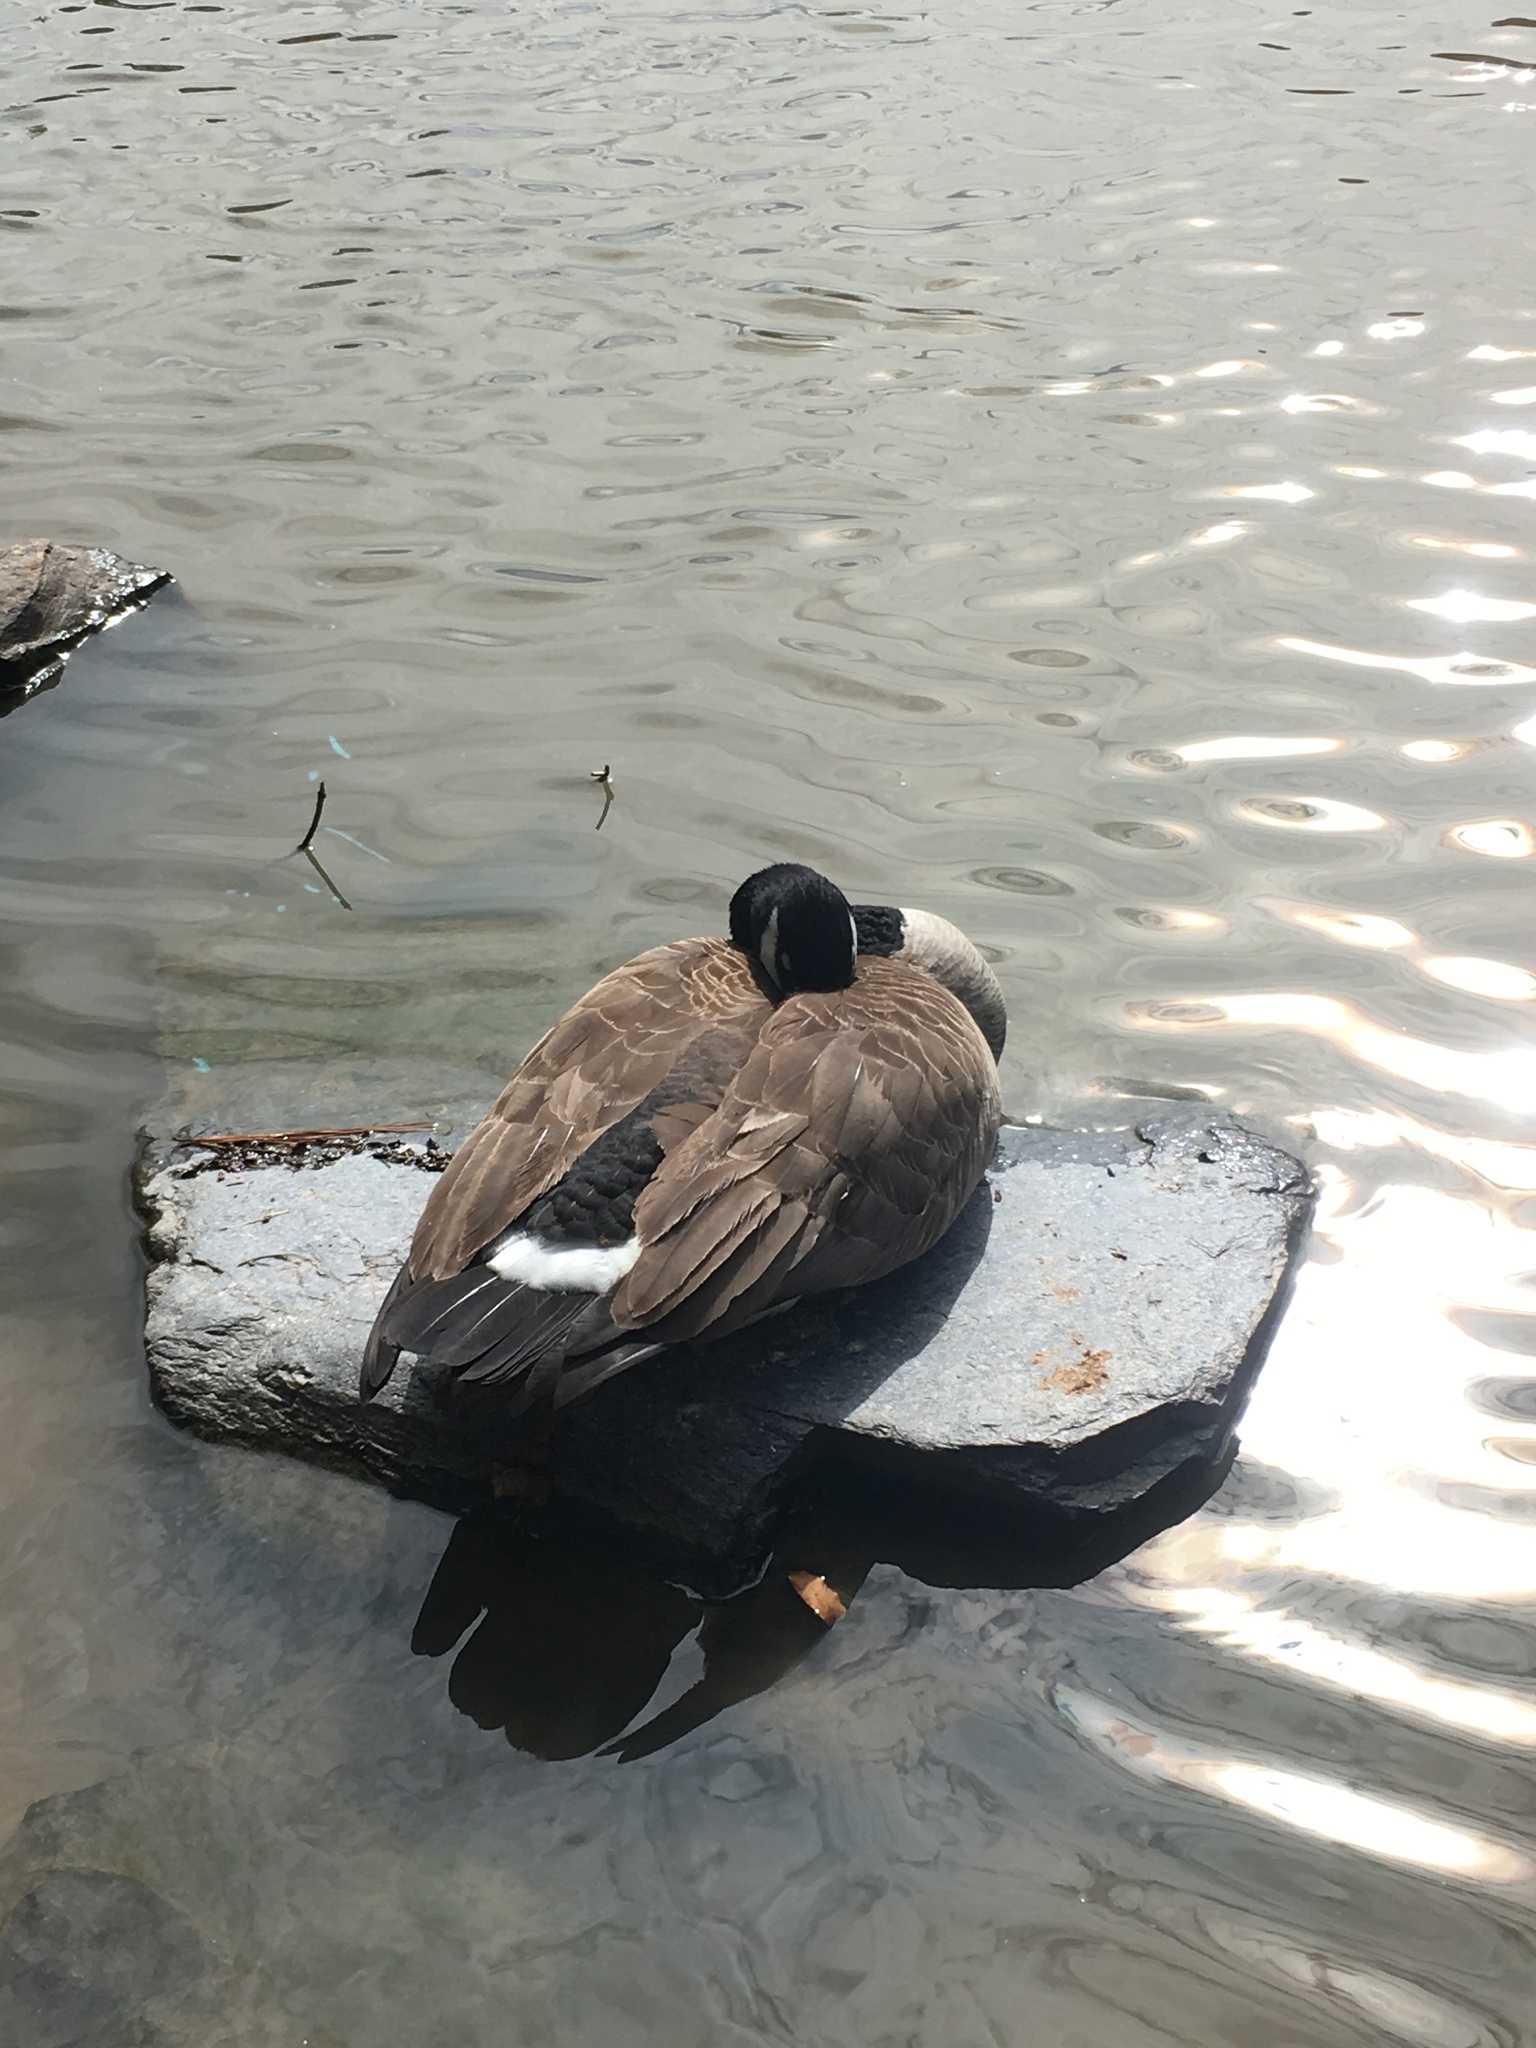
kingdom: Animalia
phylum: Chordata
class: Aves
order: Anseriformes
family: Anatidae
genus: Branta
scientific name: Branta canadensis
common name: Canada goose
